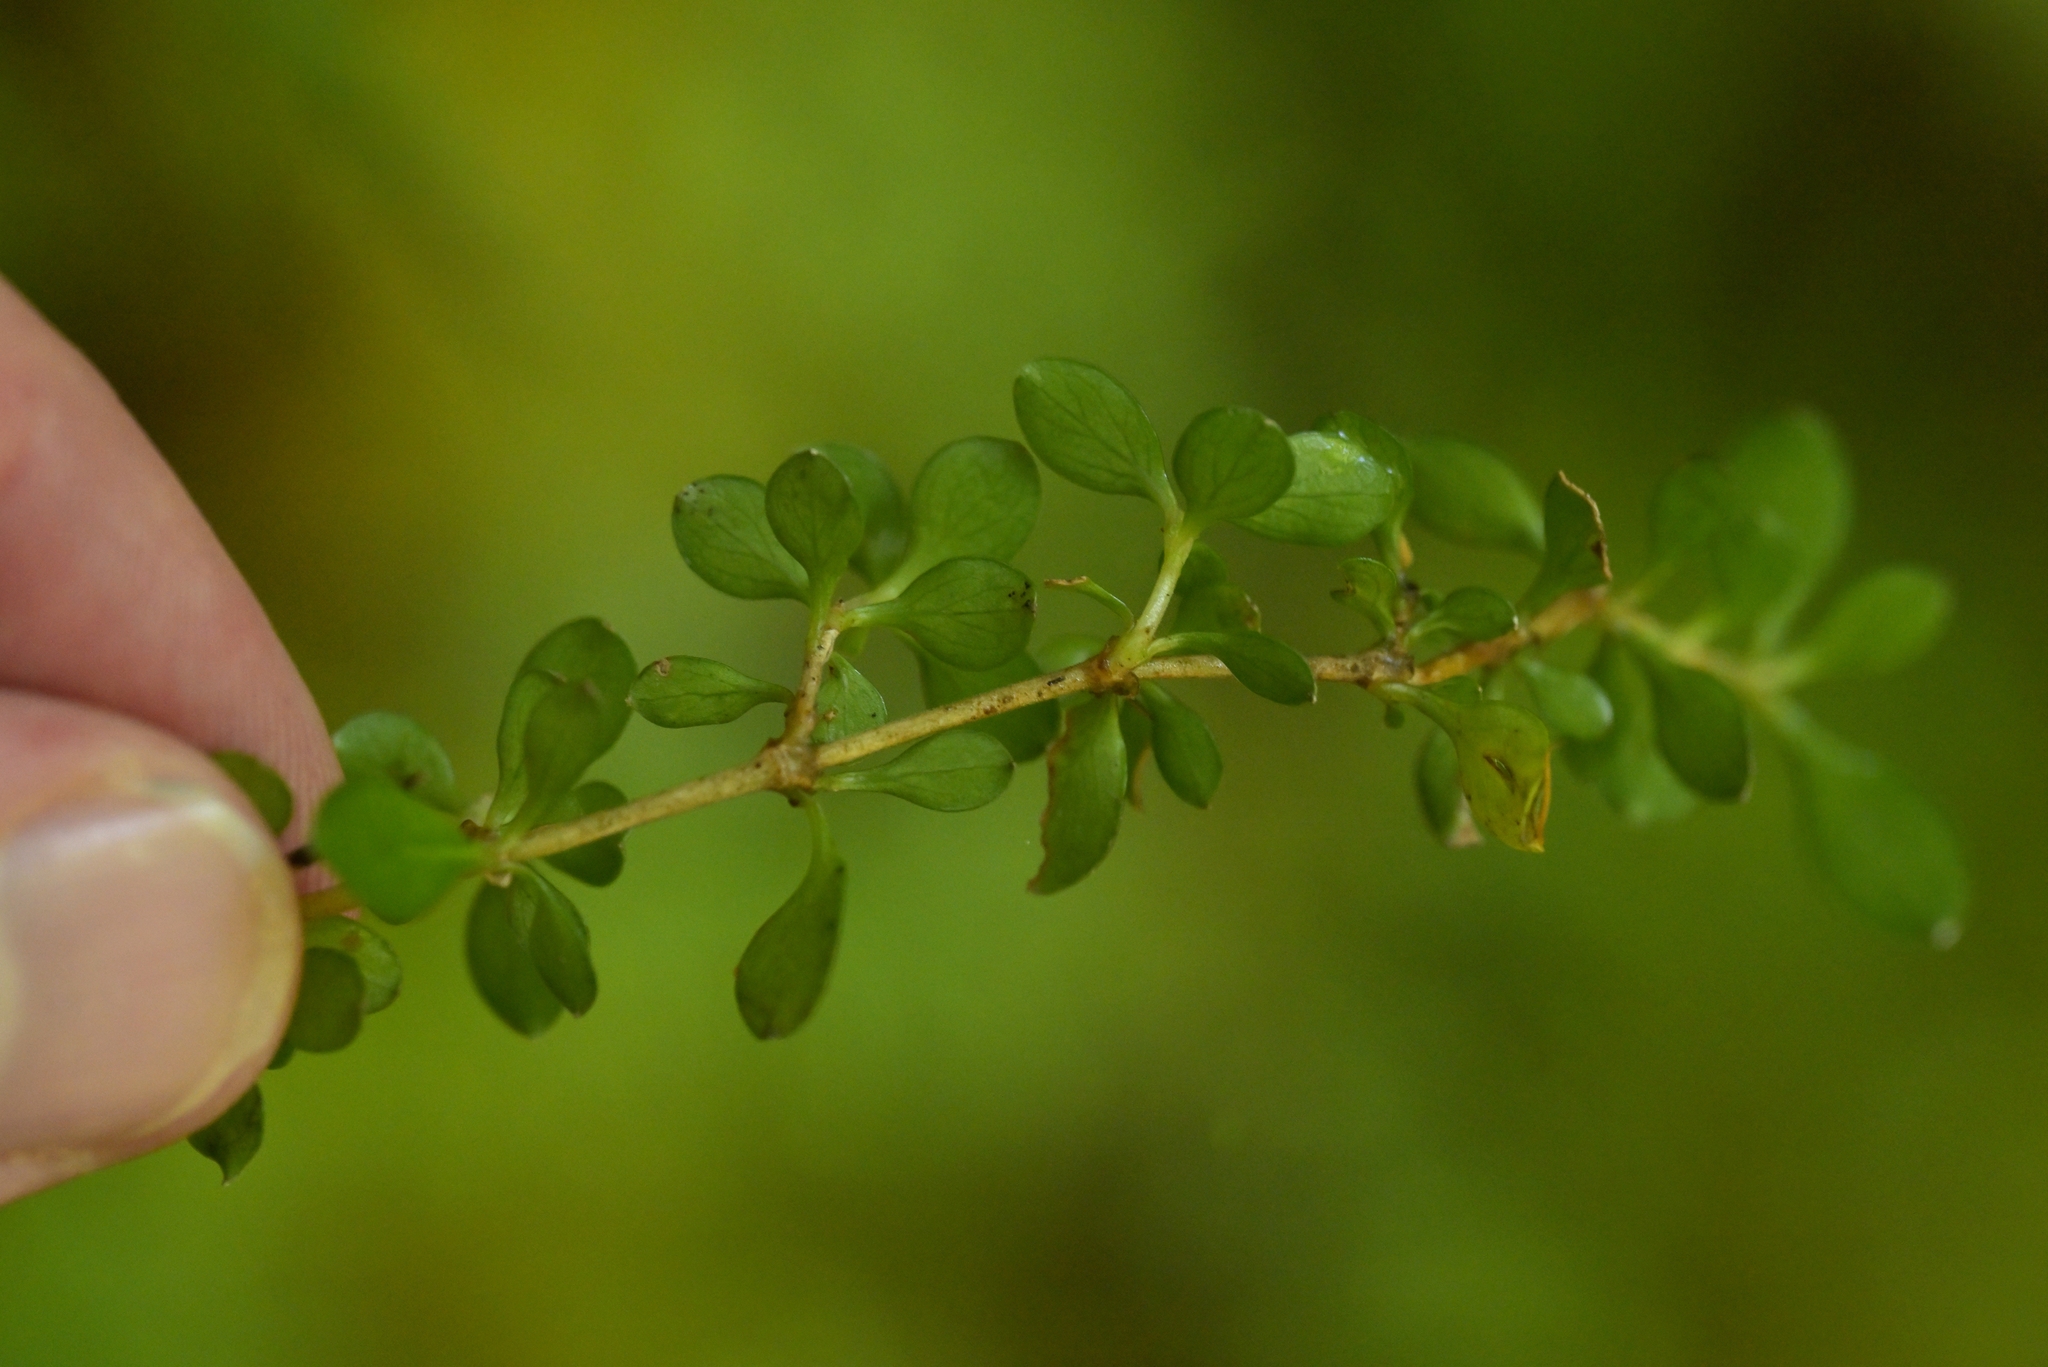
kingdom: Plantae
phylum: Tracheophyta
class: Magnoliopsida
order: Gentianales
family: Rubiaceae
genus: Coprosma
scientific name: Coprosma depressa
